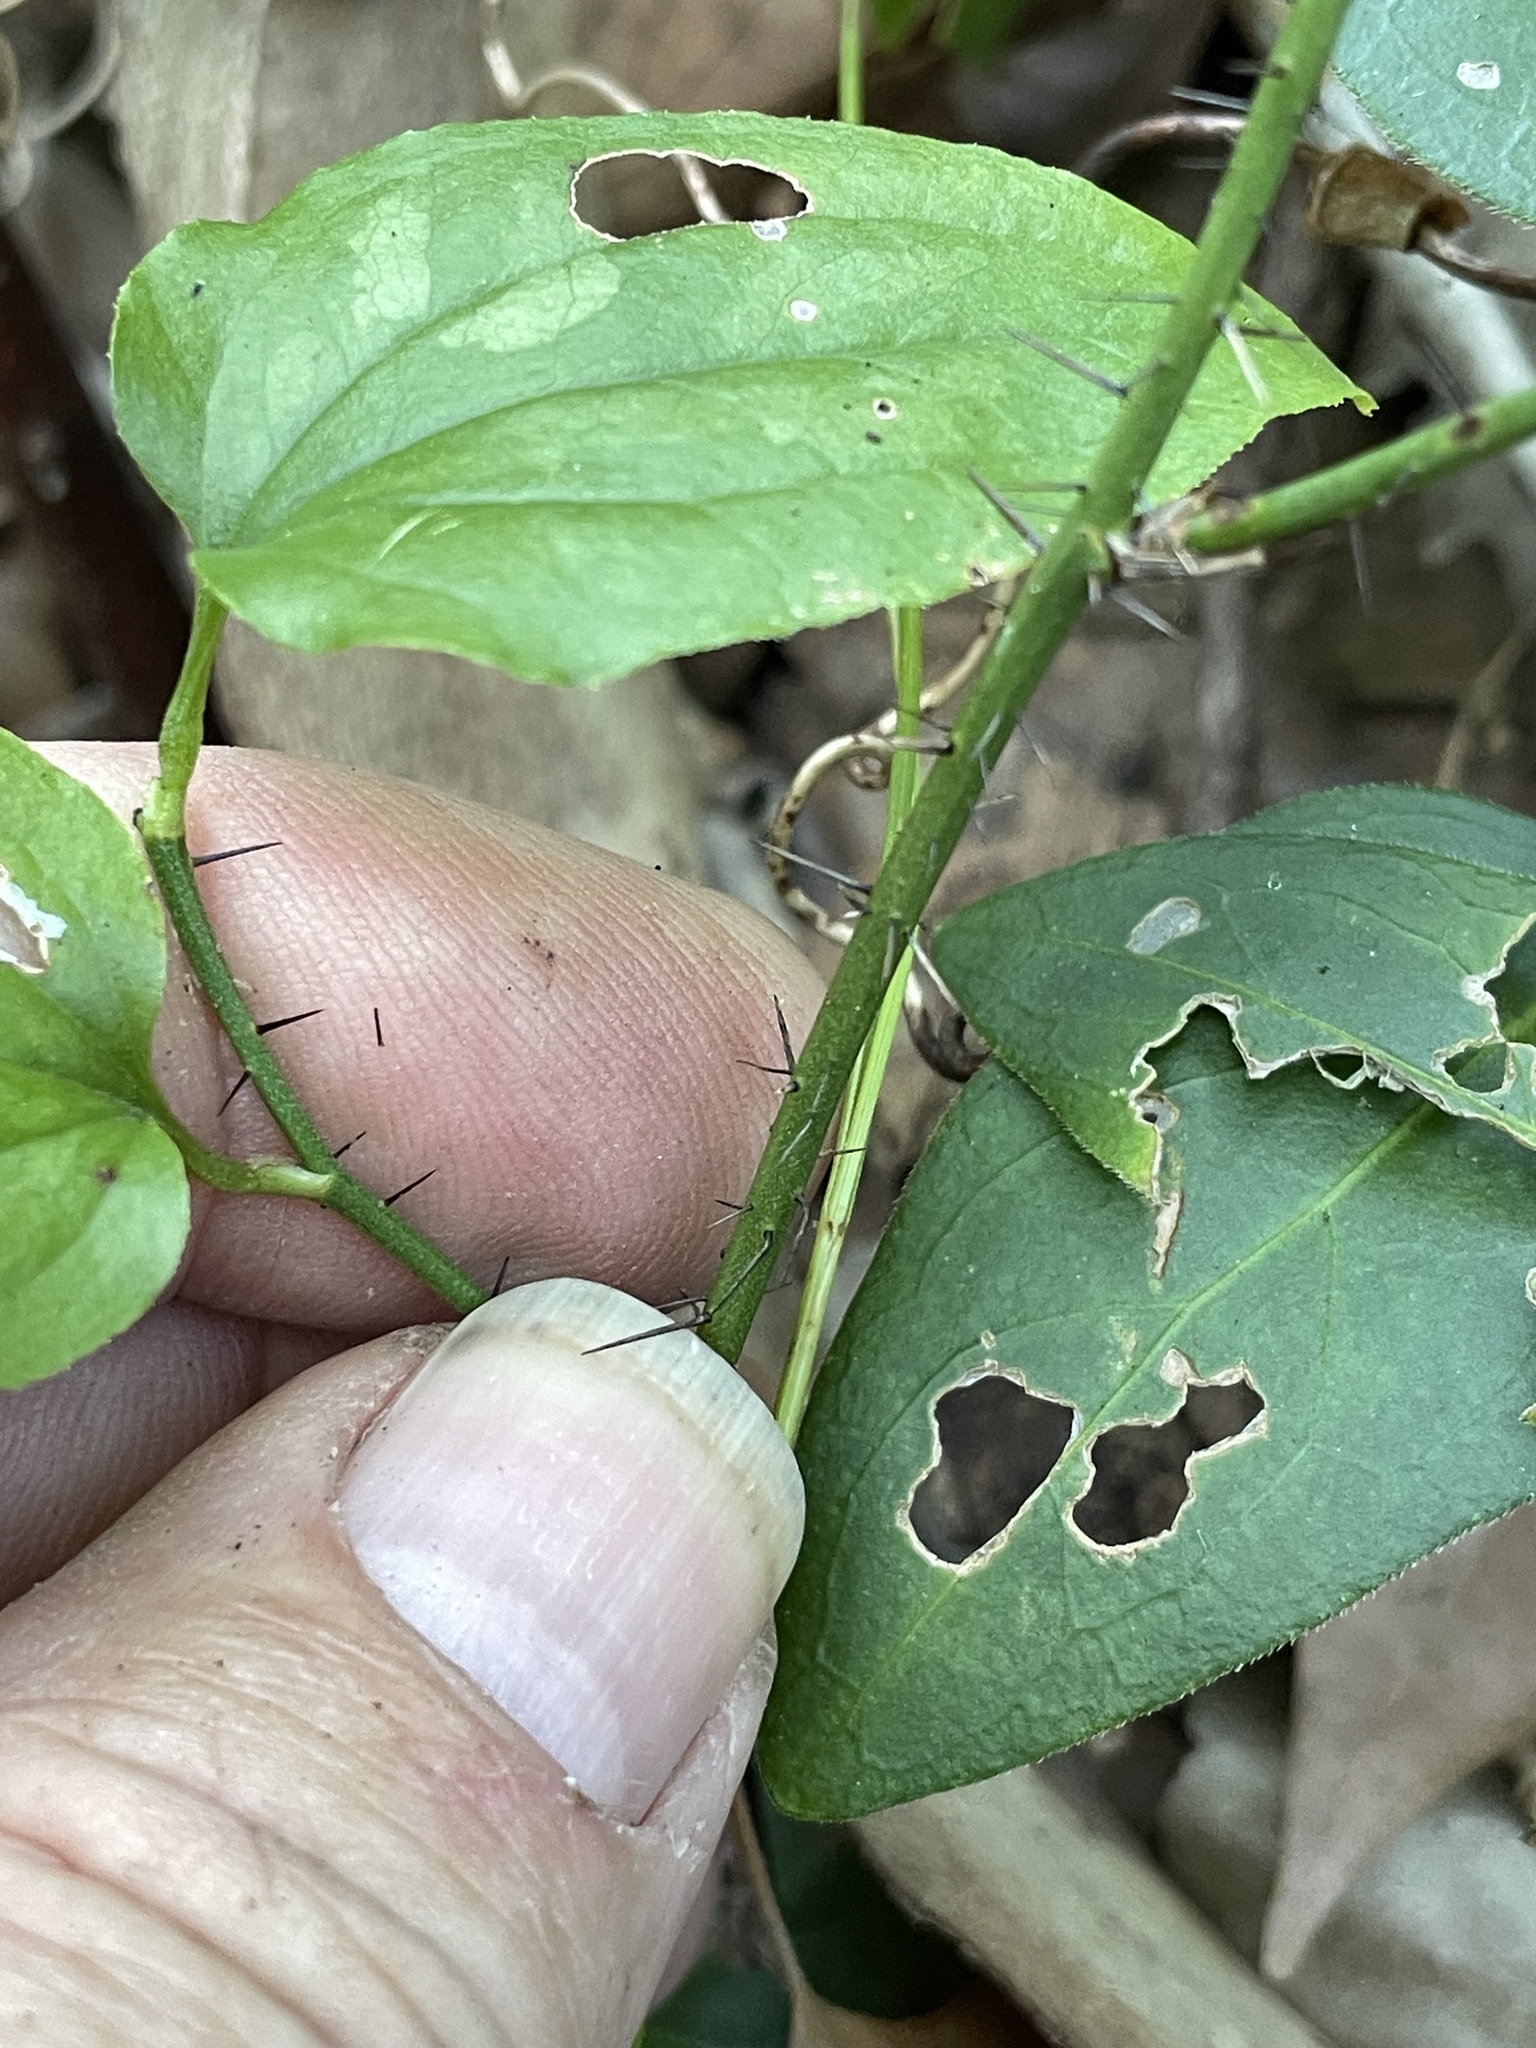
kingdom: Plantae
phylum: Tracheophyta
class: Liliopsida
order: Liliales
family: Smilacaceae
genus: Smilax
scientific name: Smilax tamnoides
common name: Hellfetter
